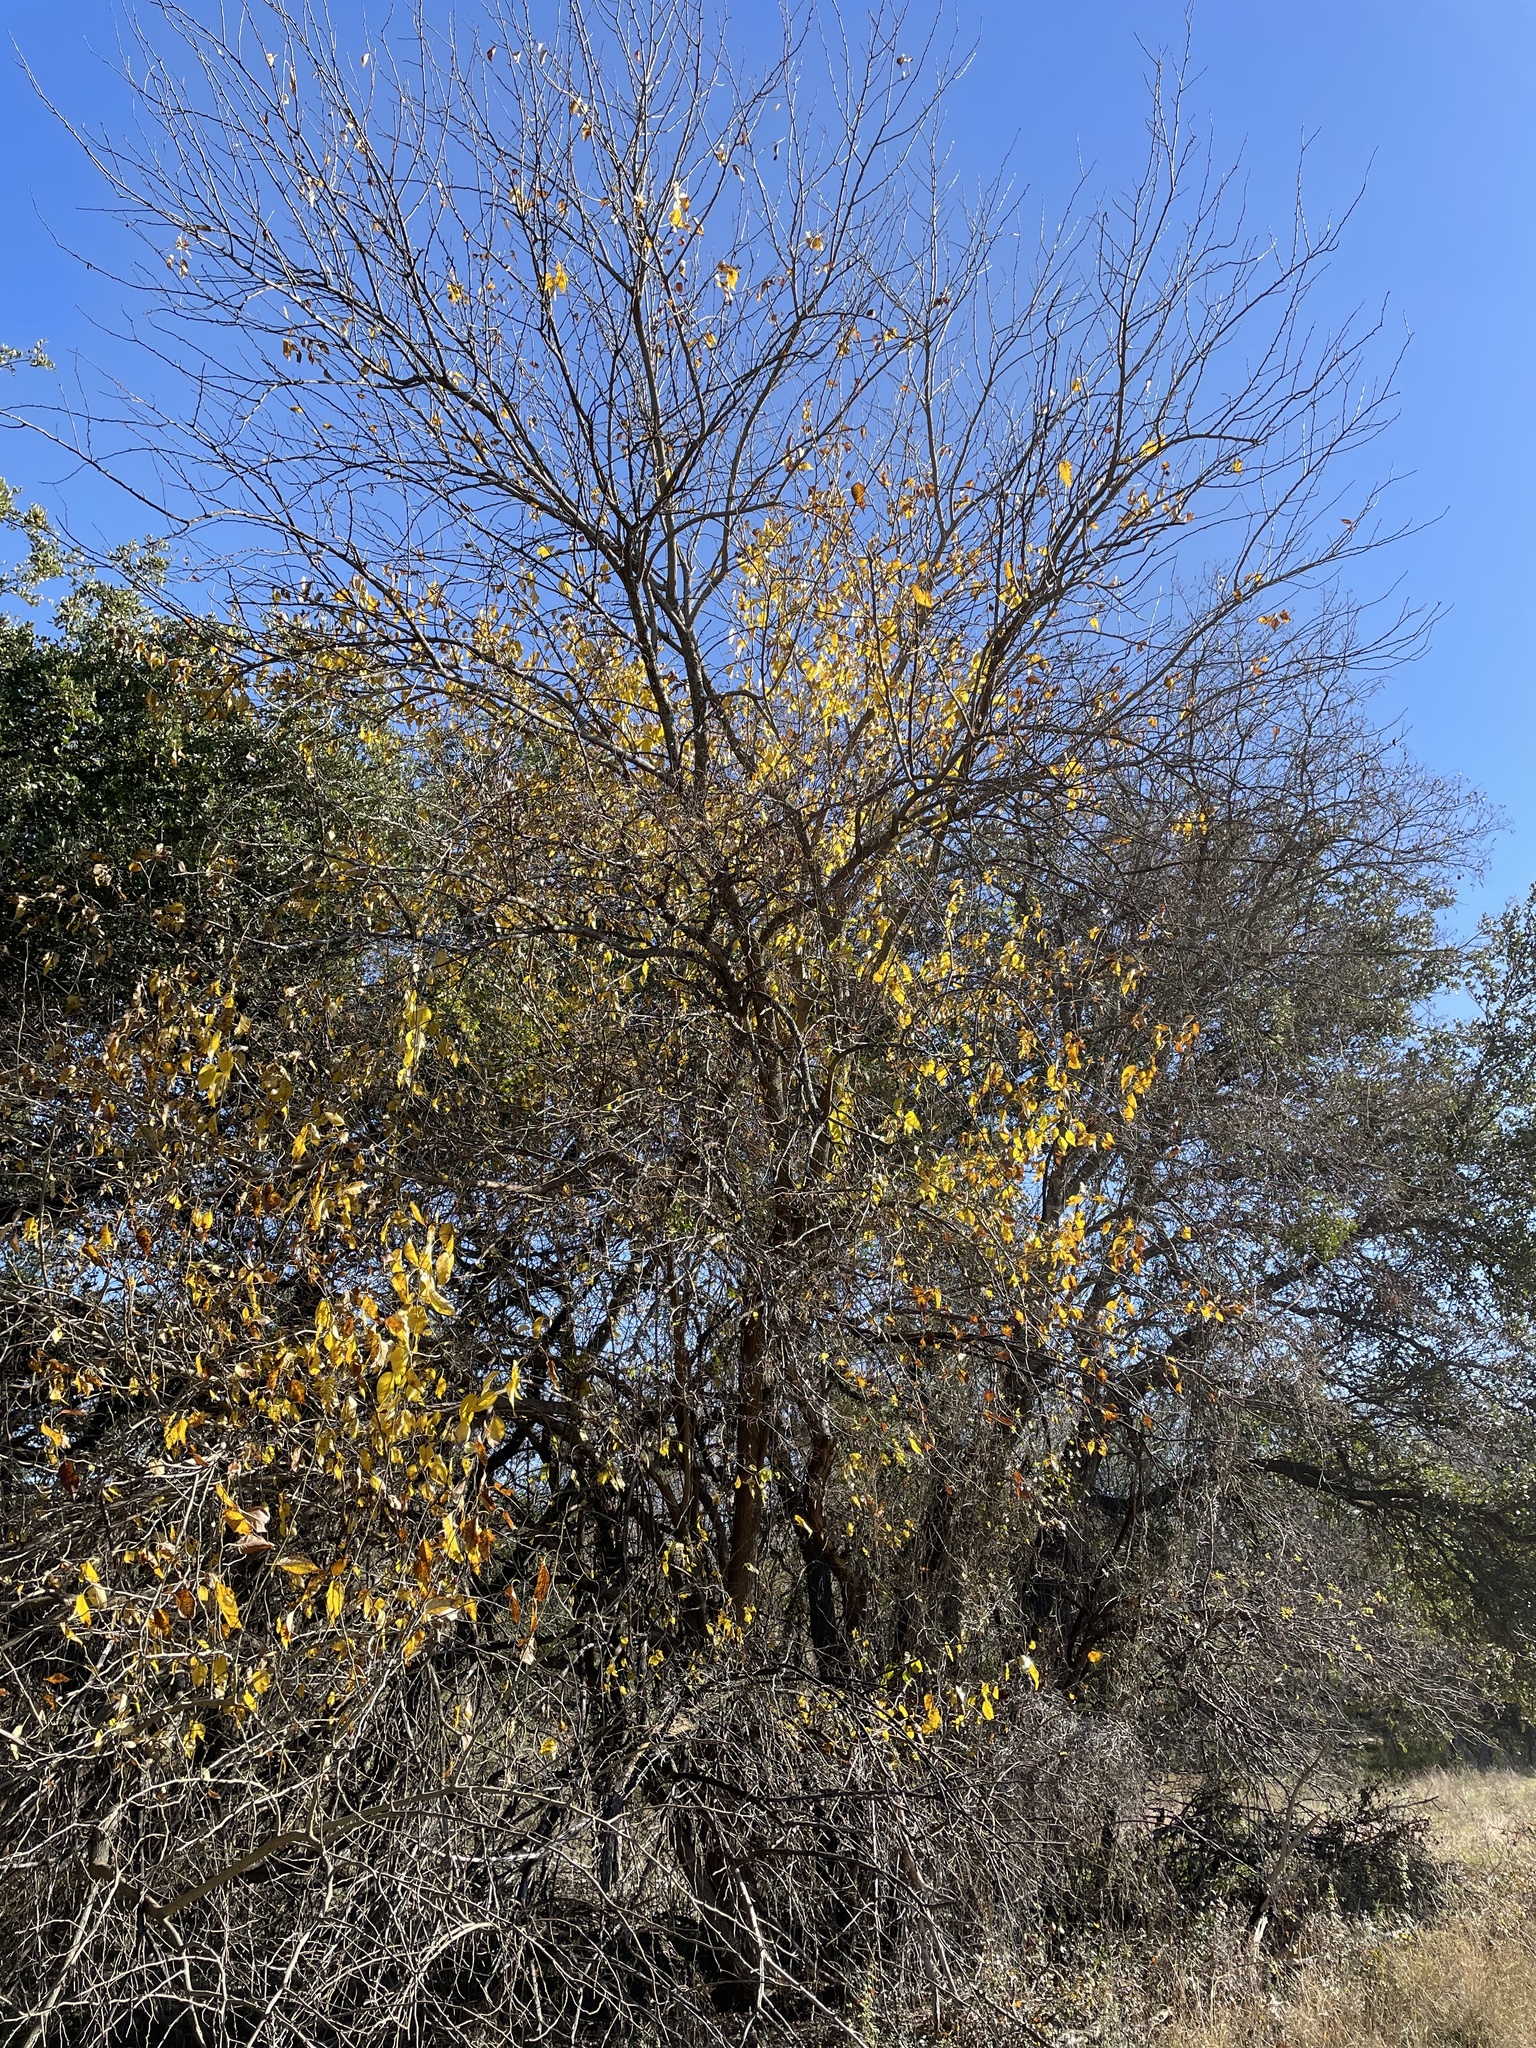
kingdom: Plantae
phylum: Tracheophyta
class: Magnoliopsida
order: Rosales
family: Moraceae
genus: Maclura
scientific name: Maclura pomifera
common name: Osage-orange
